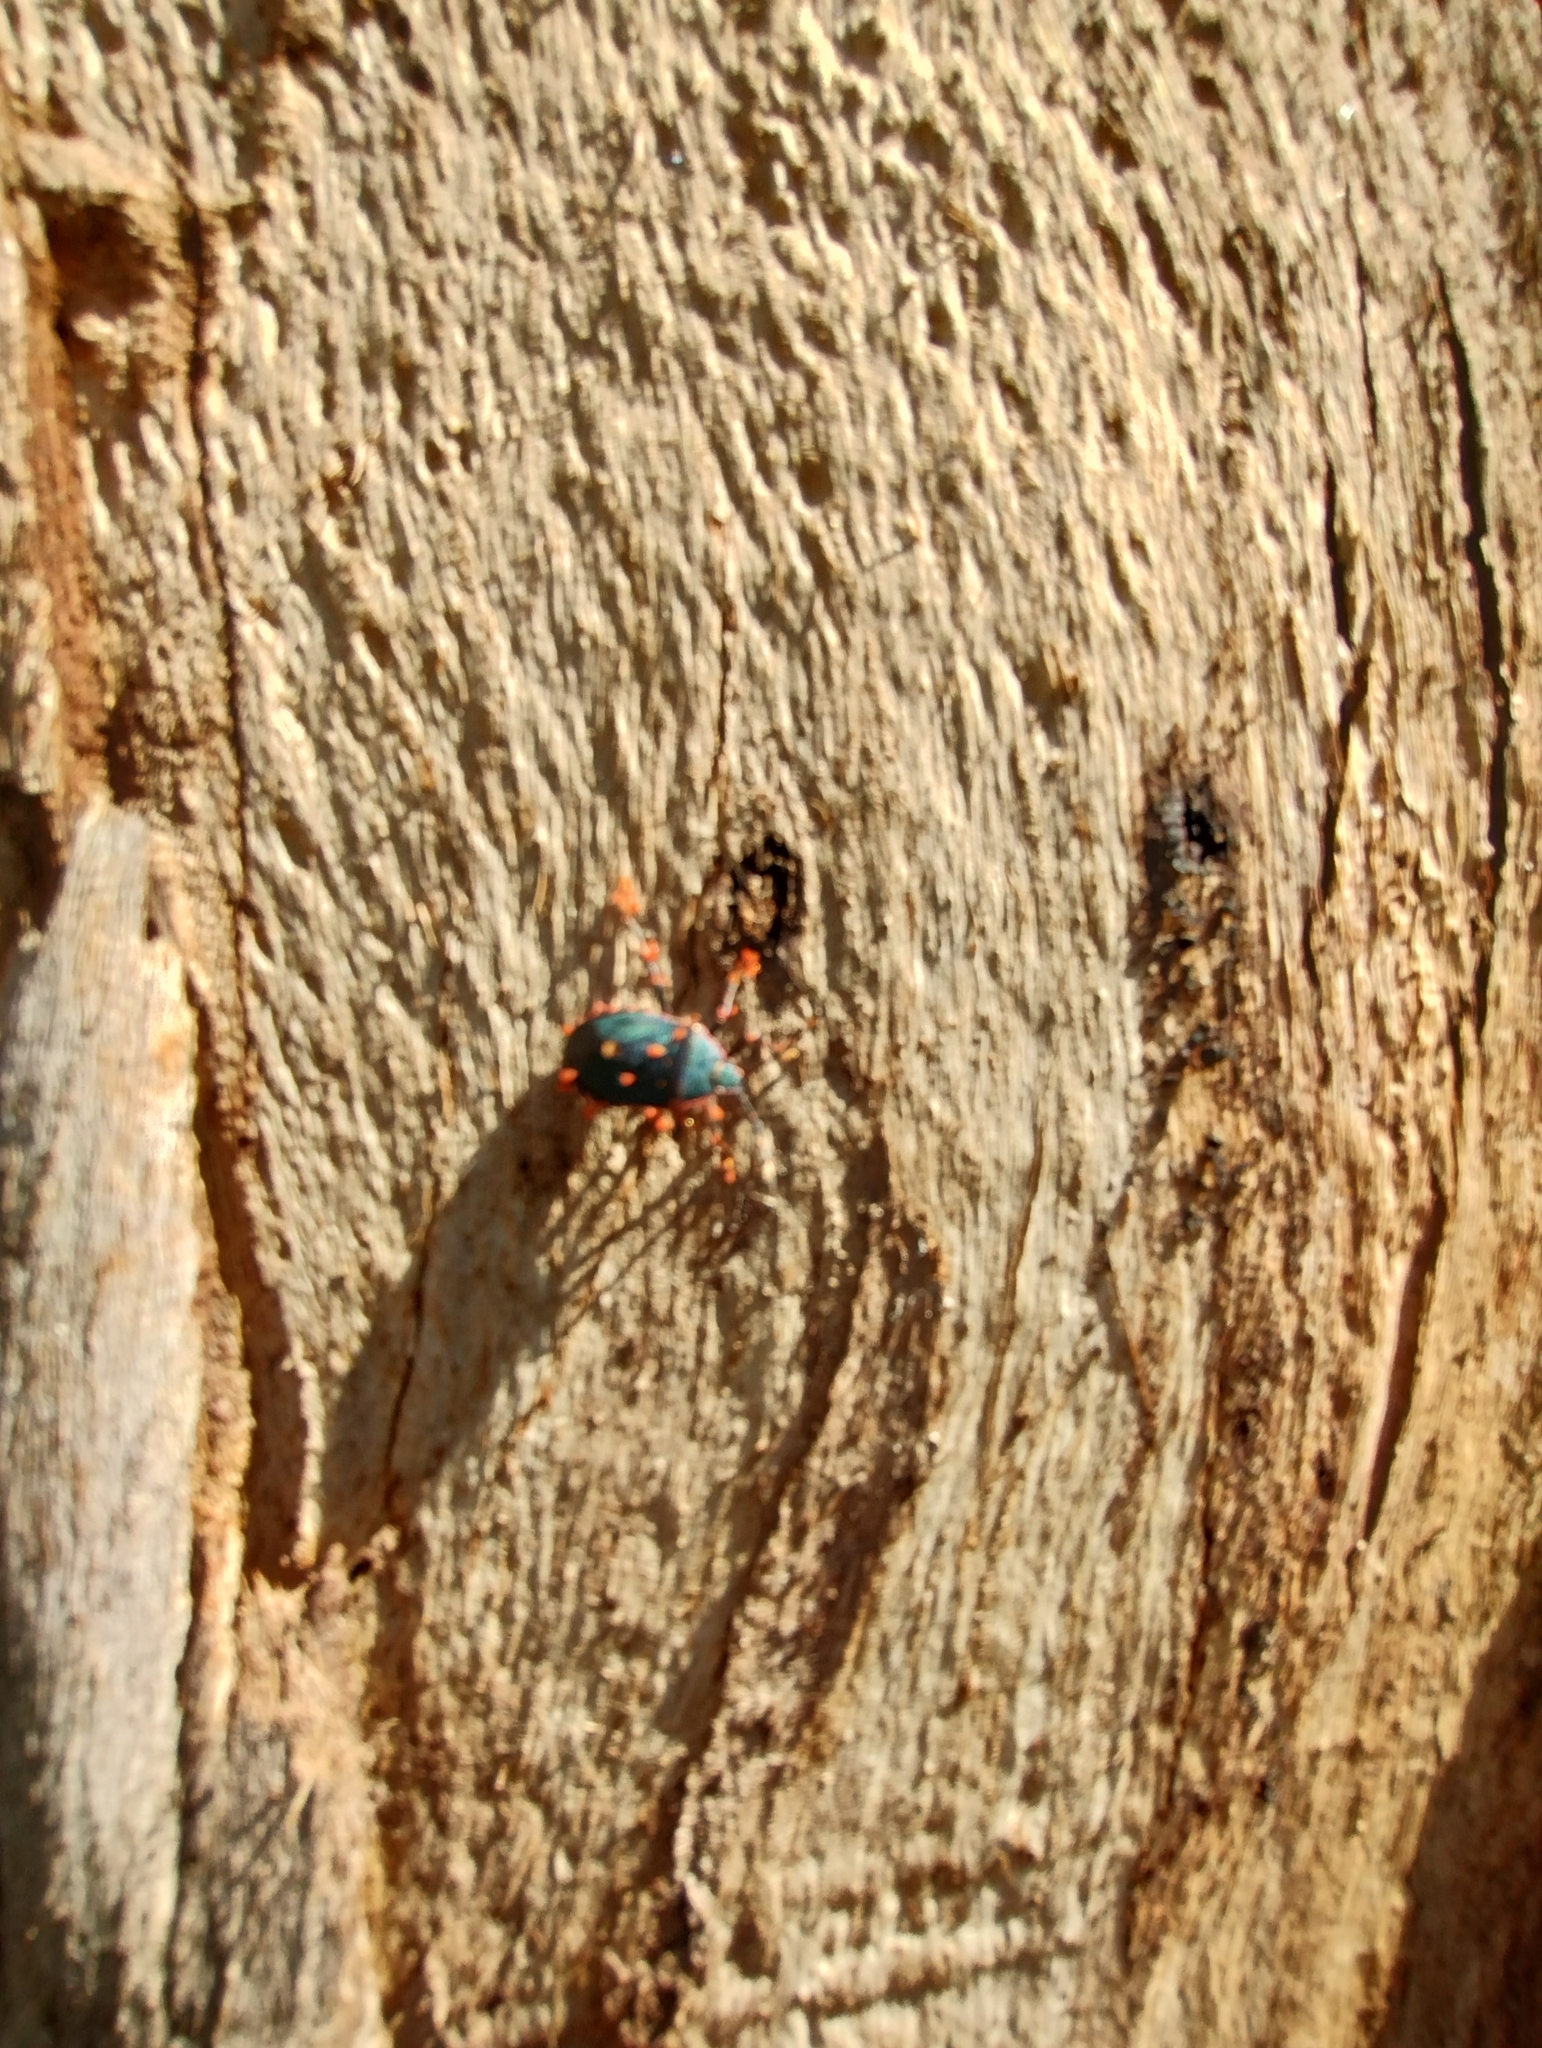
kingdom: Animalia
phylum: Arthropoda
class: Insecta
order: Hemiptera
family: Pentatomidae
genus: Notius
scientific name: Notius
